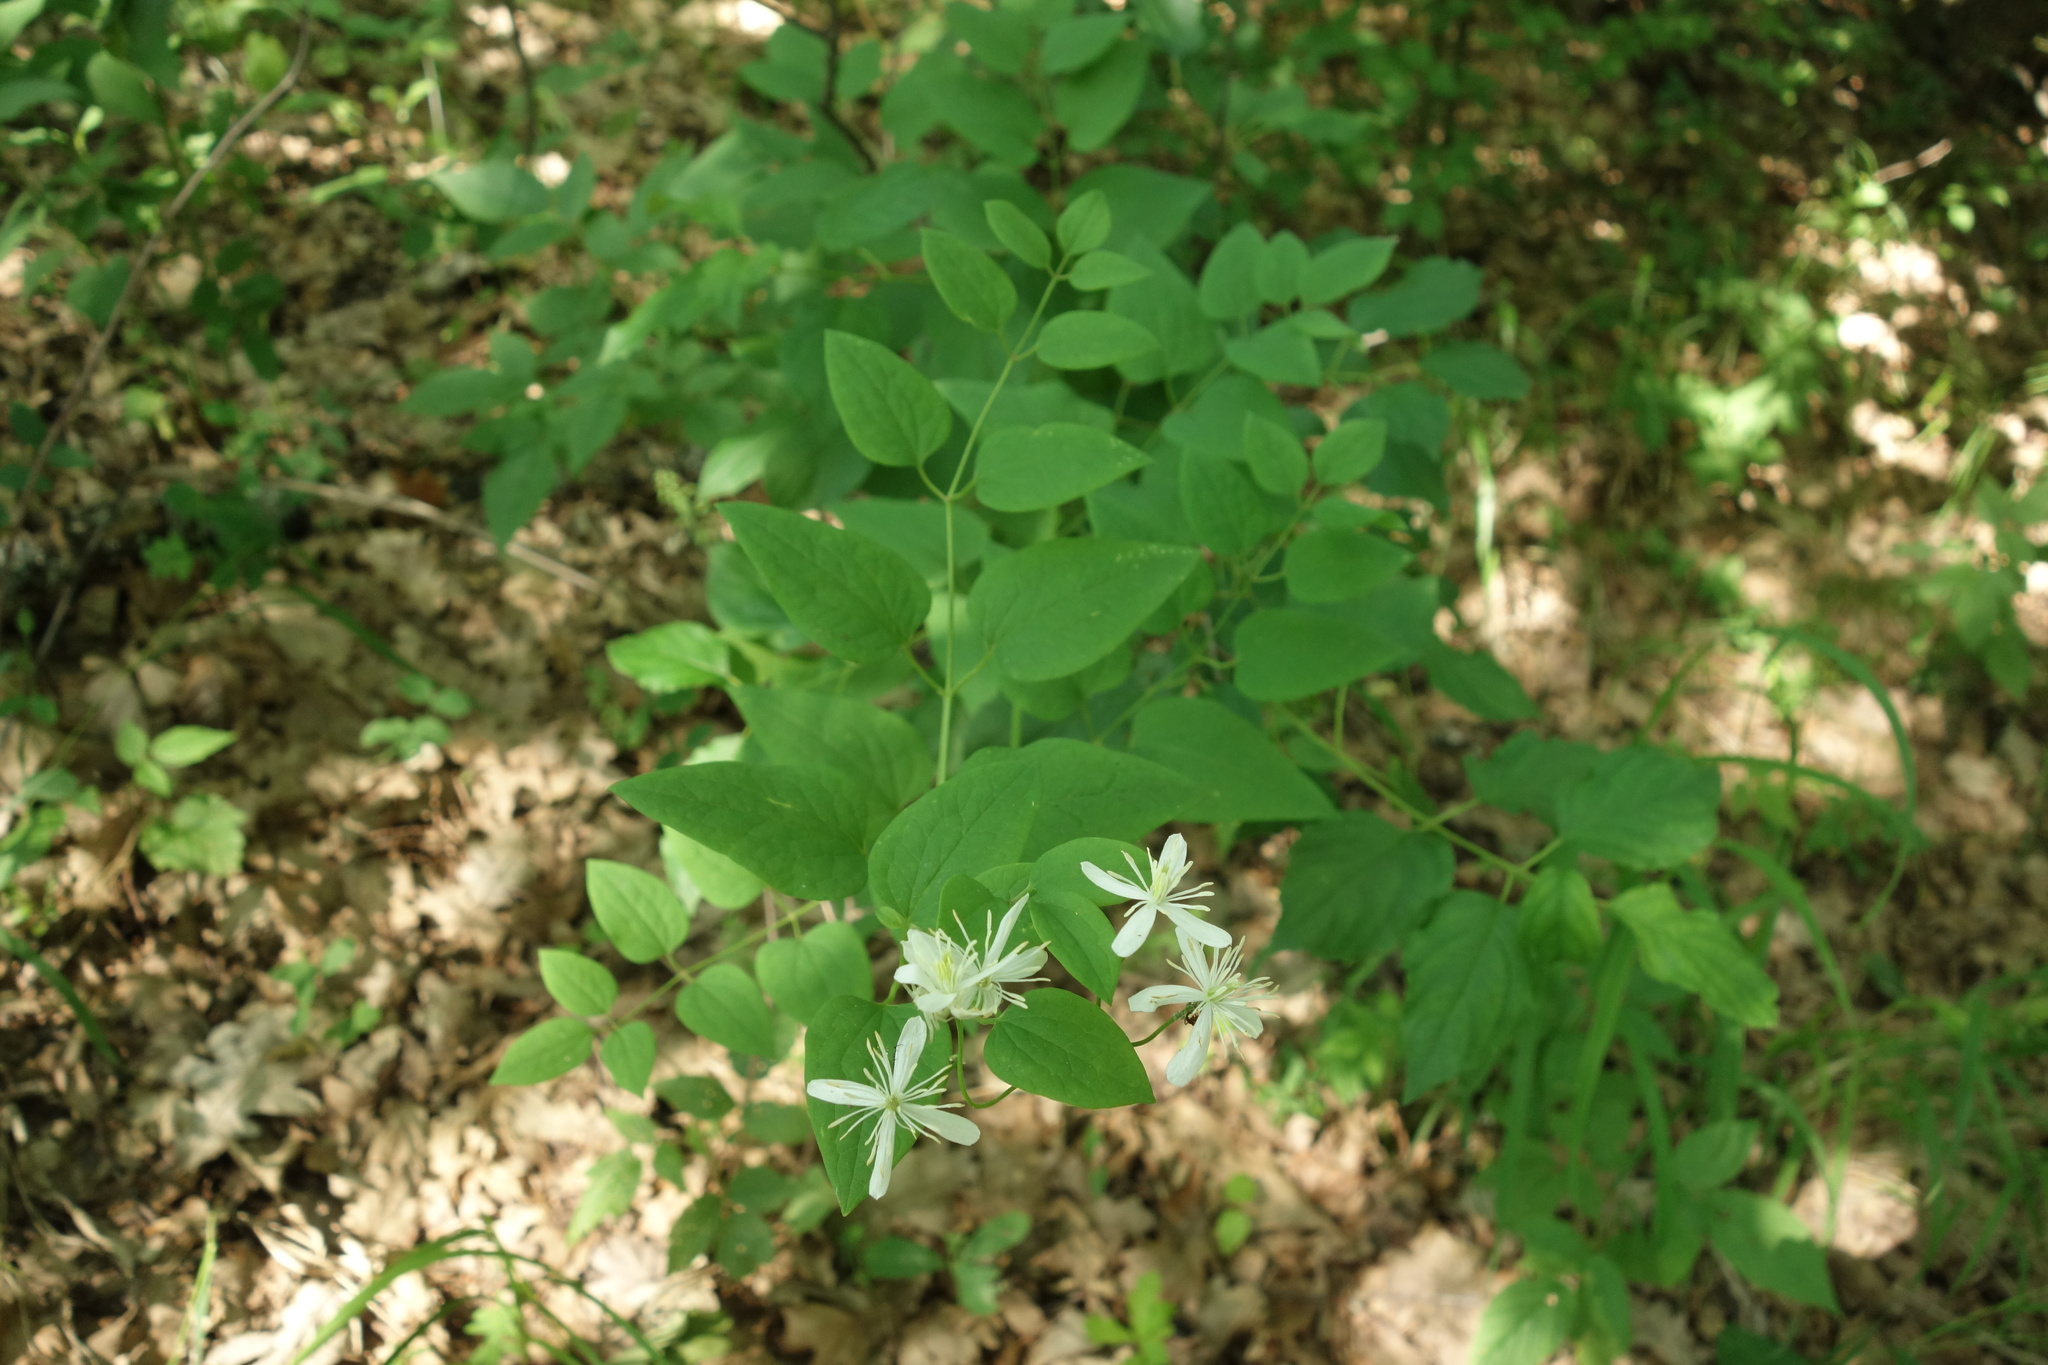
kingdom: Plantae
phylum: Tracheophyta
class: Magnoliopsida
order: Ranunculales
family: Ranunculaceae
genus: Clematis
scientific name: Clematis recta
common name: Ground clematis
